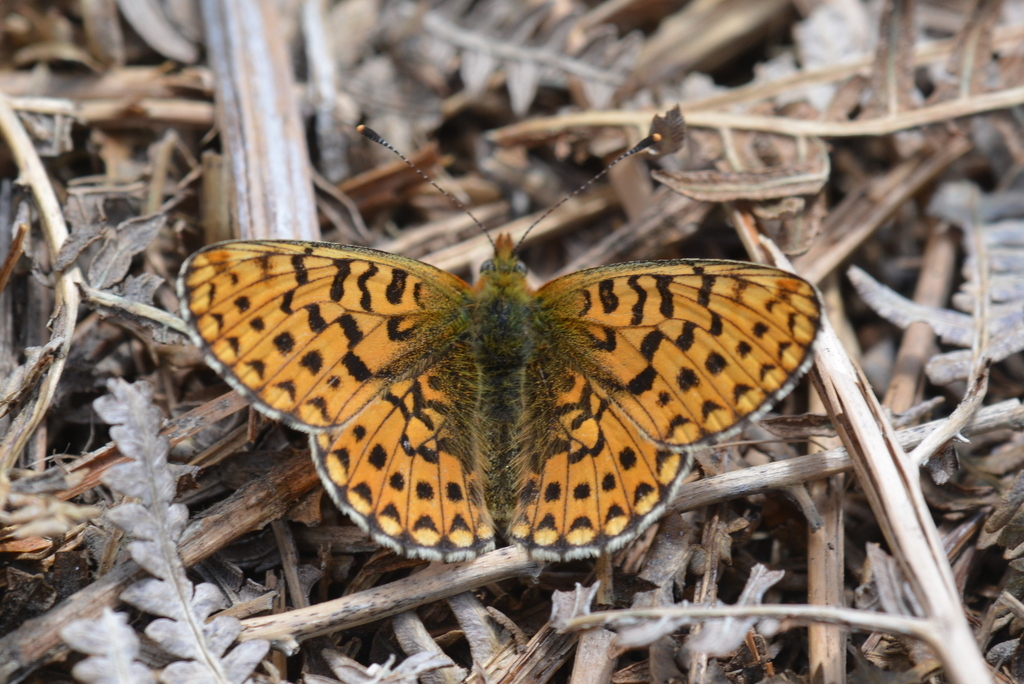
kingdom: Animalia
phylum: Arthropoda
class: Insecta
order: Lepidoptera
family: Nymphalidae
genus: Clossiana
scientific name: Clossiana euphrosyne
